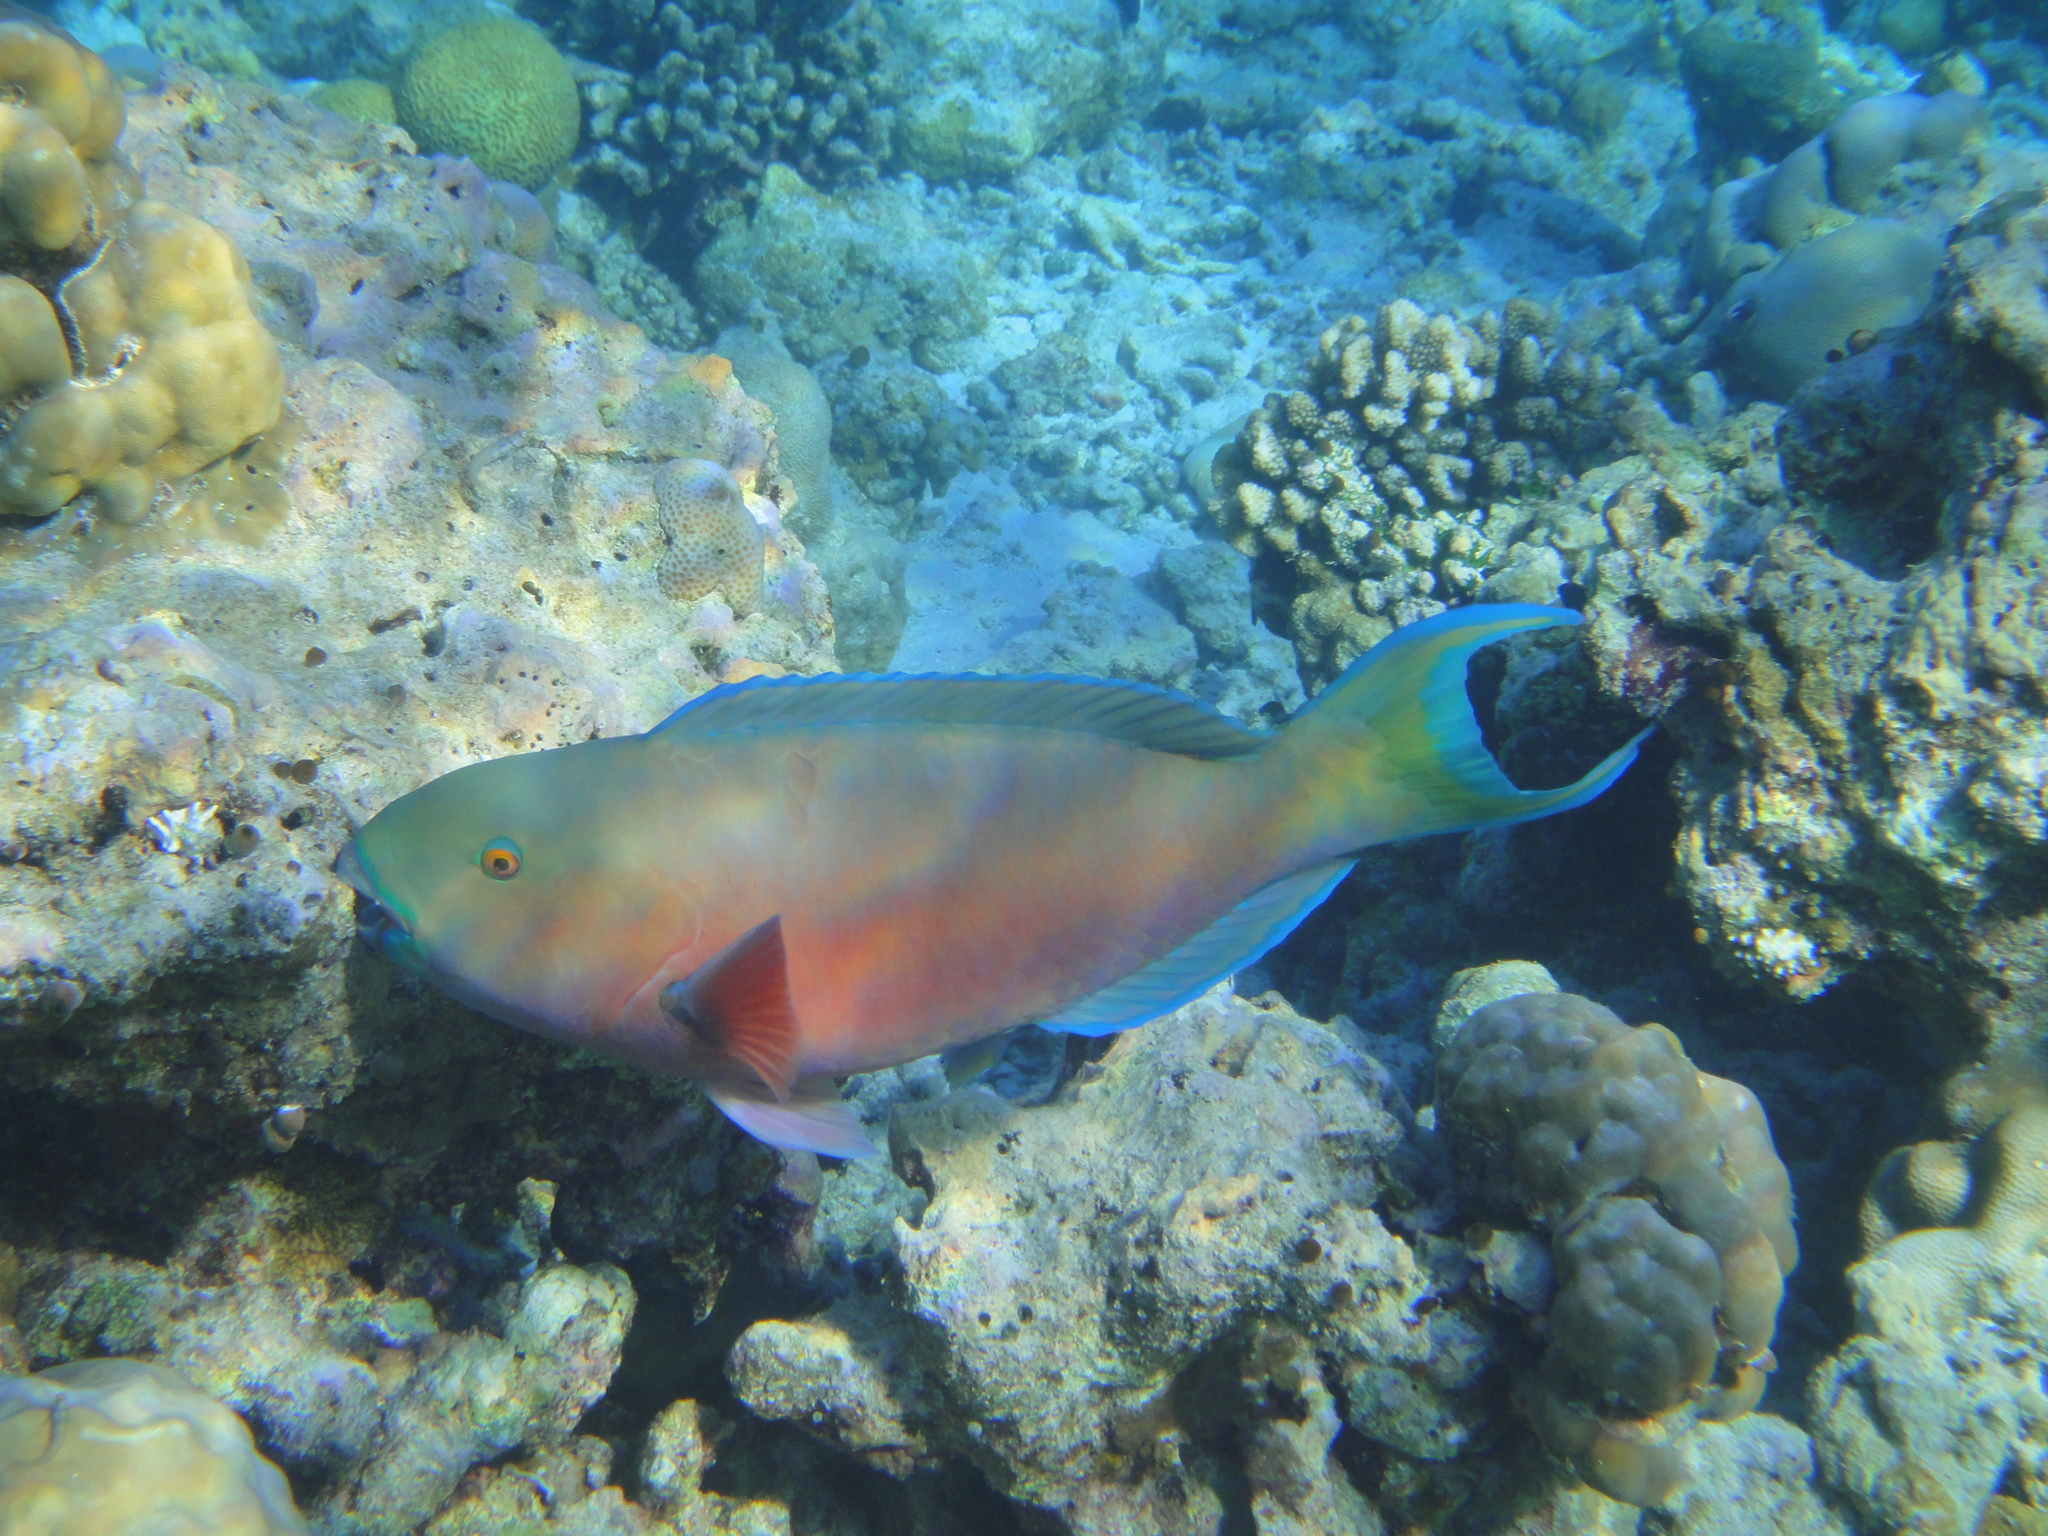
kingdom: Animalia
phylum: Chordata
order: Perciformes
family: Scaridae
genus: Chlorurus
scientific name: Chlorurus strongylocephalus
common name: Steephead parrotfish
